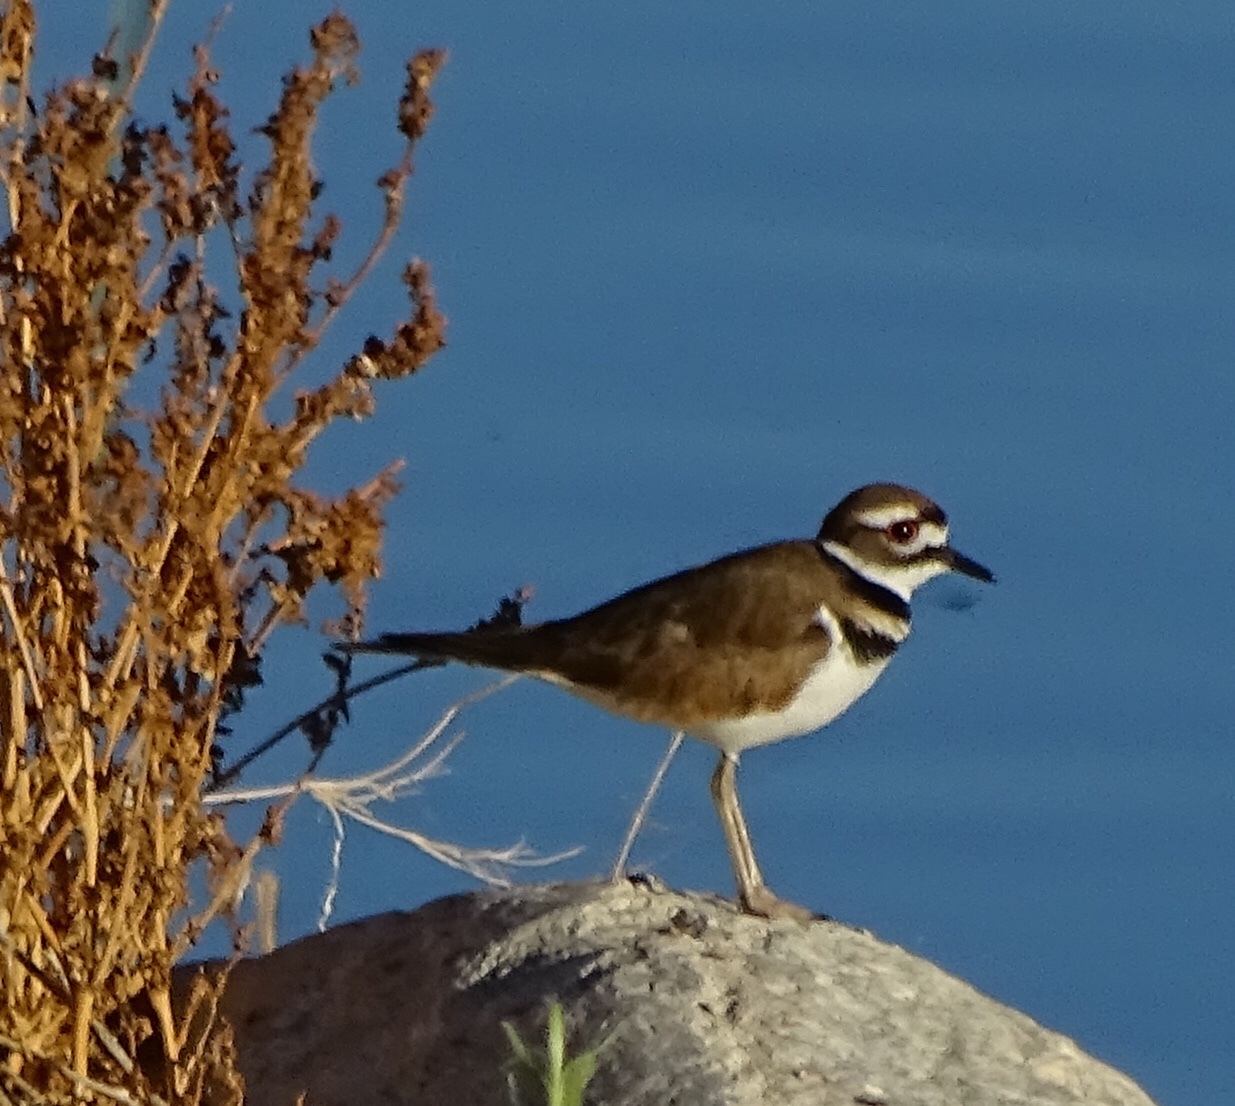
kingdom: Animalia
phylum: Chordata
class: Aves
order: Charadriiformes
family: Charadriidae
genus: Charadrius
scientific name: Charadrius vociferus
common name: Killdeer
